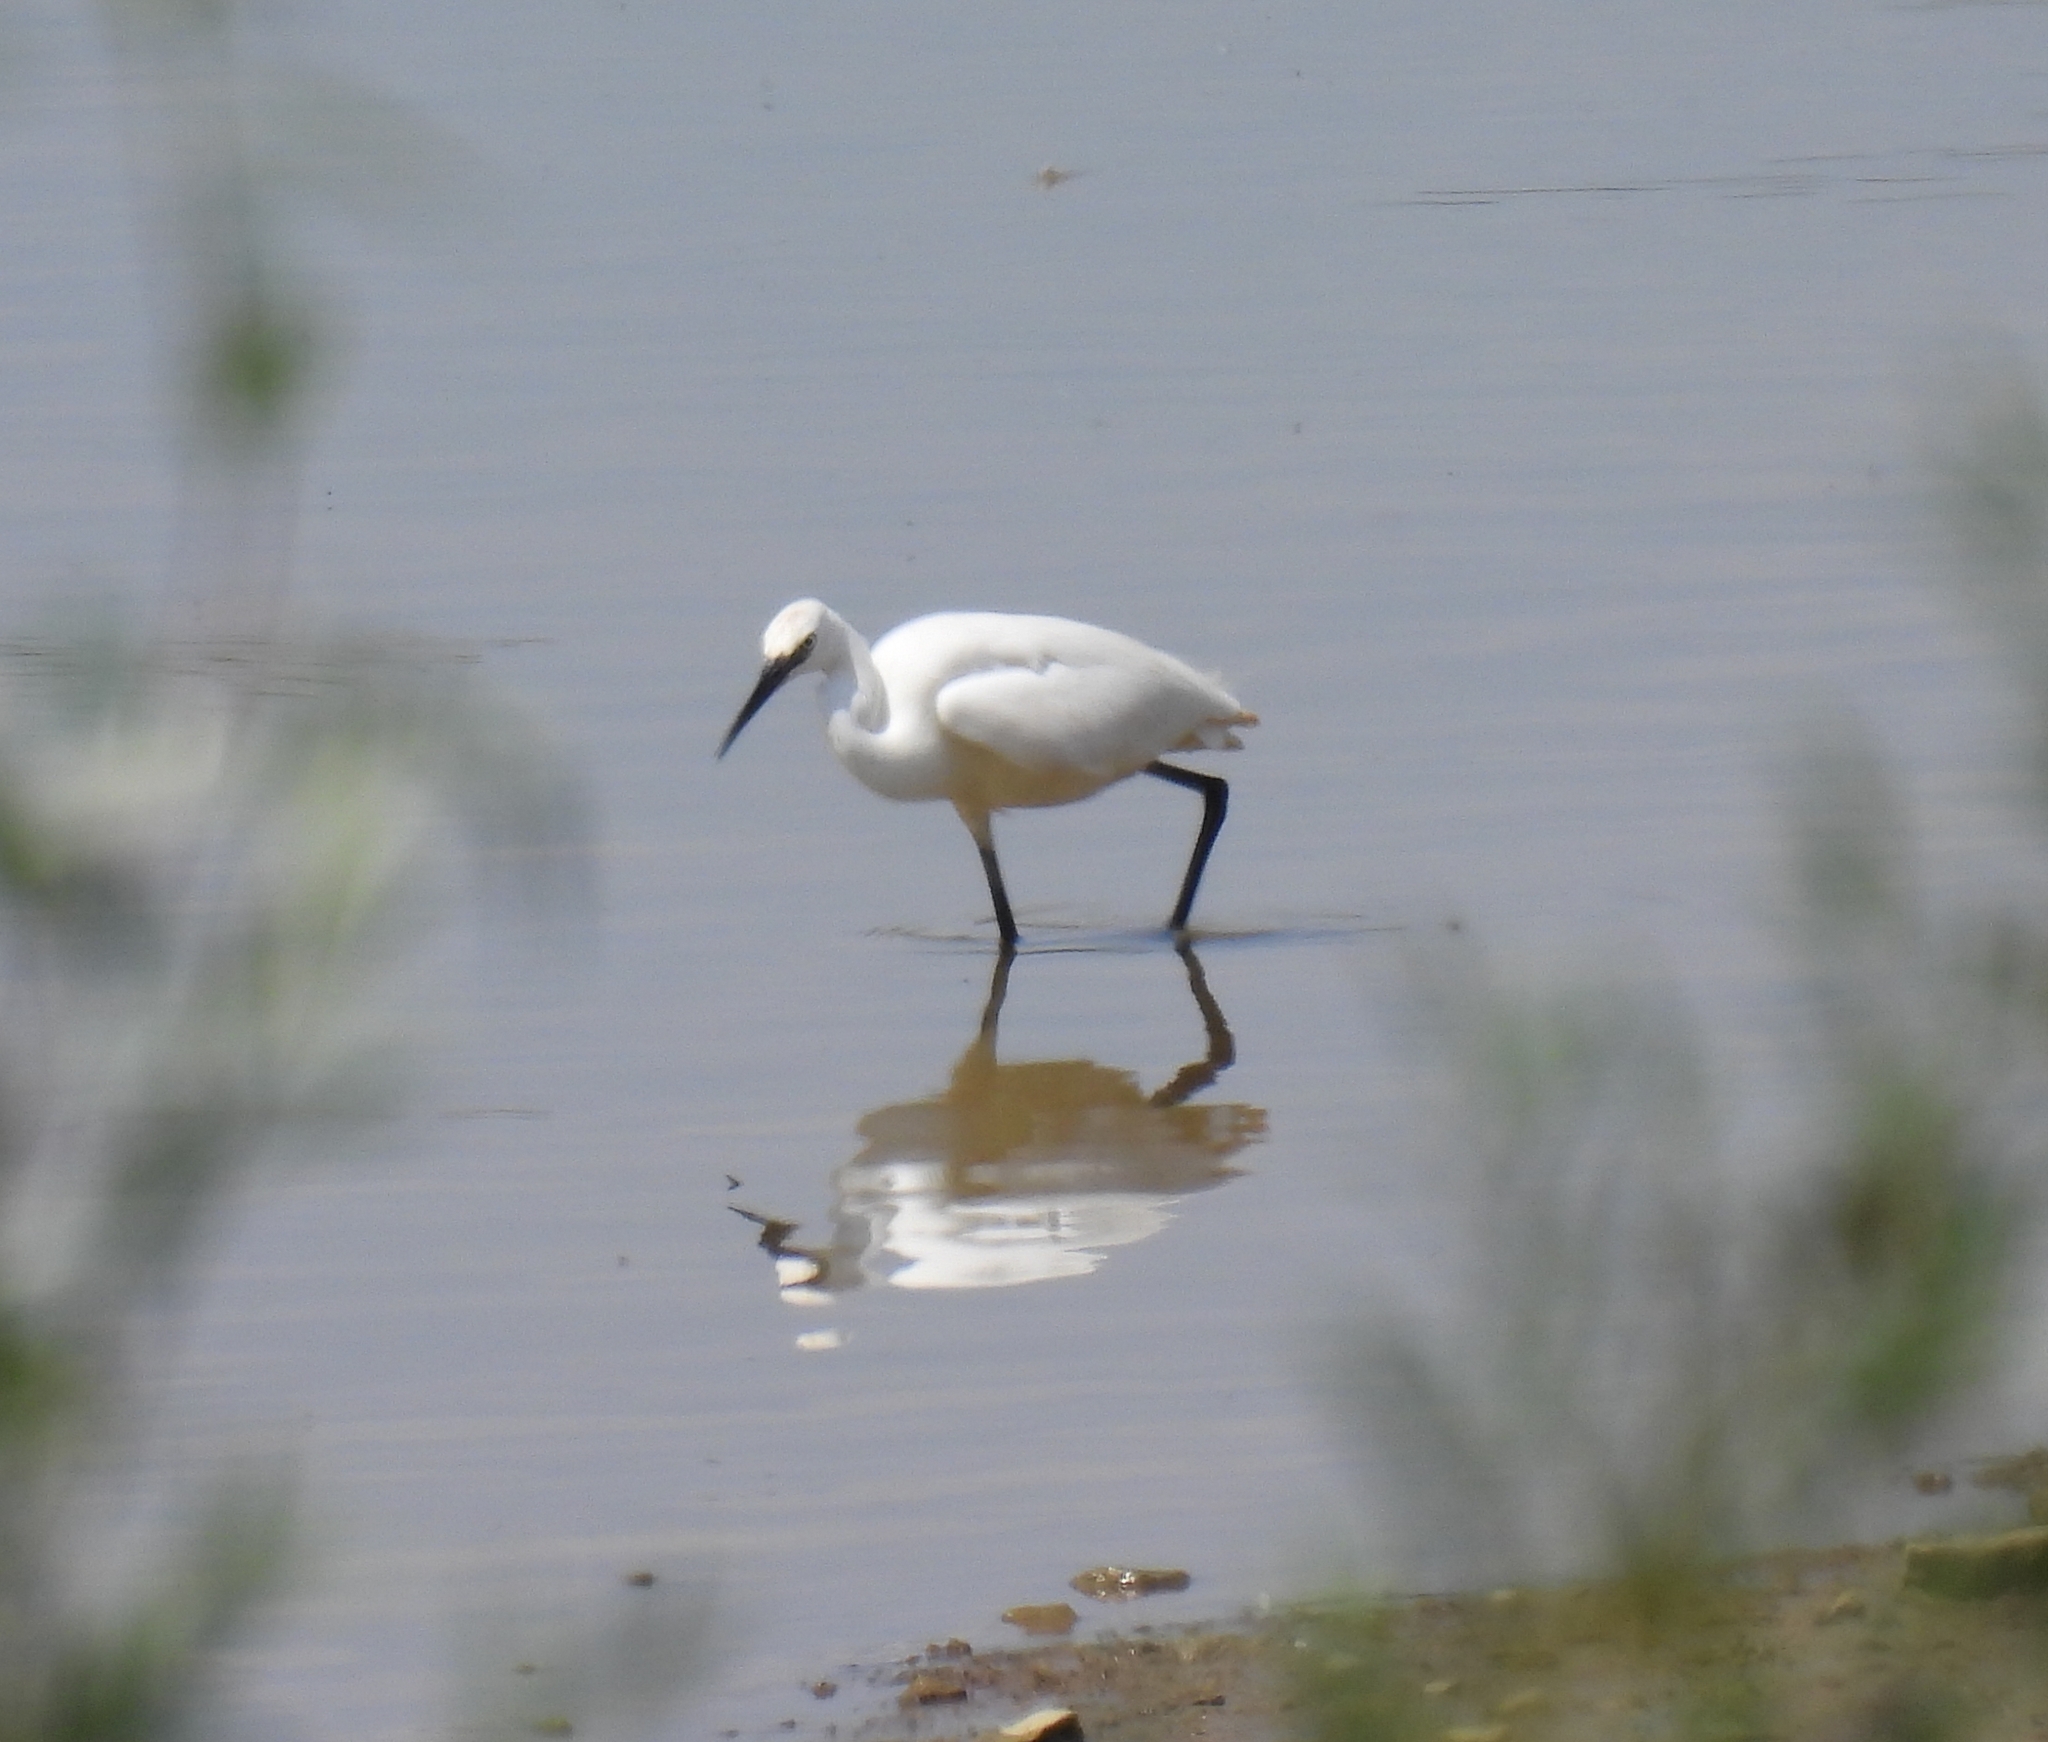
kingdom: Animalia
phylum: Chordata
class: Aves
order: Pelecaniformes
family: Ardeidae
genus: Egretta
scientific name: Egretta garzetta
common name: Little egret
